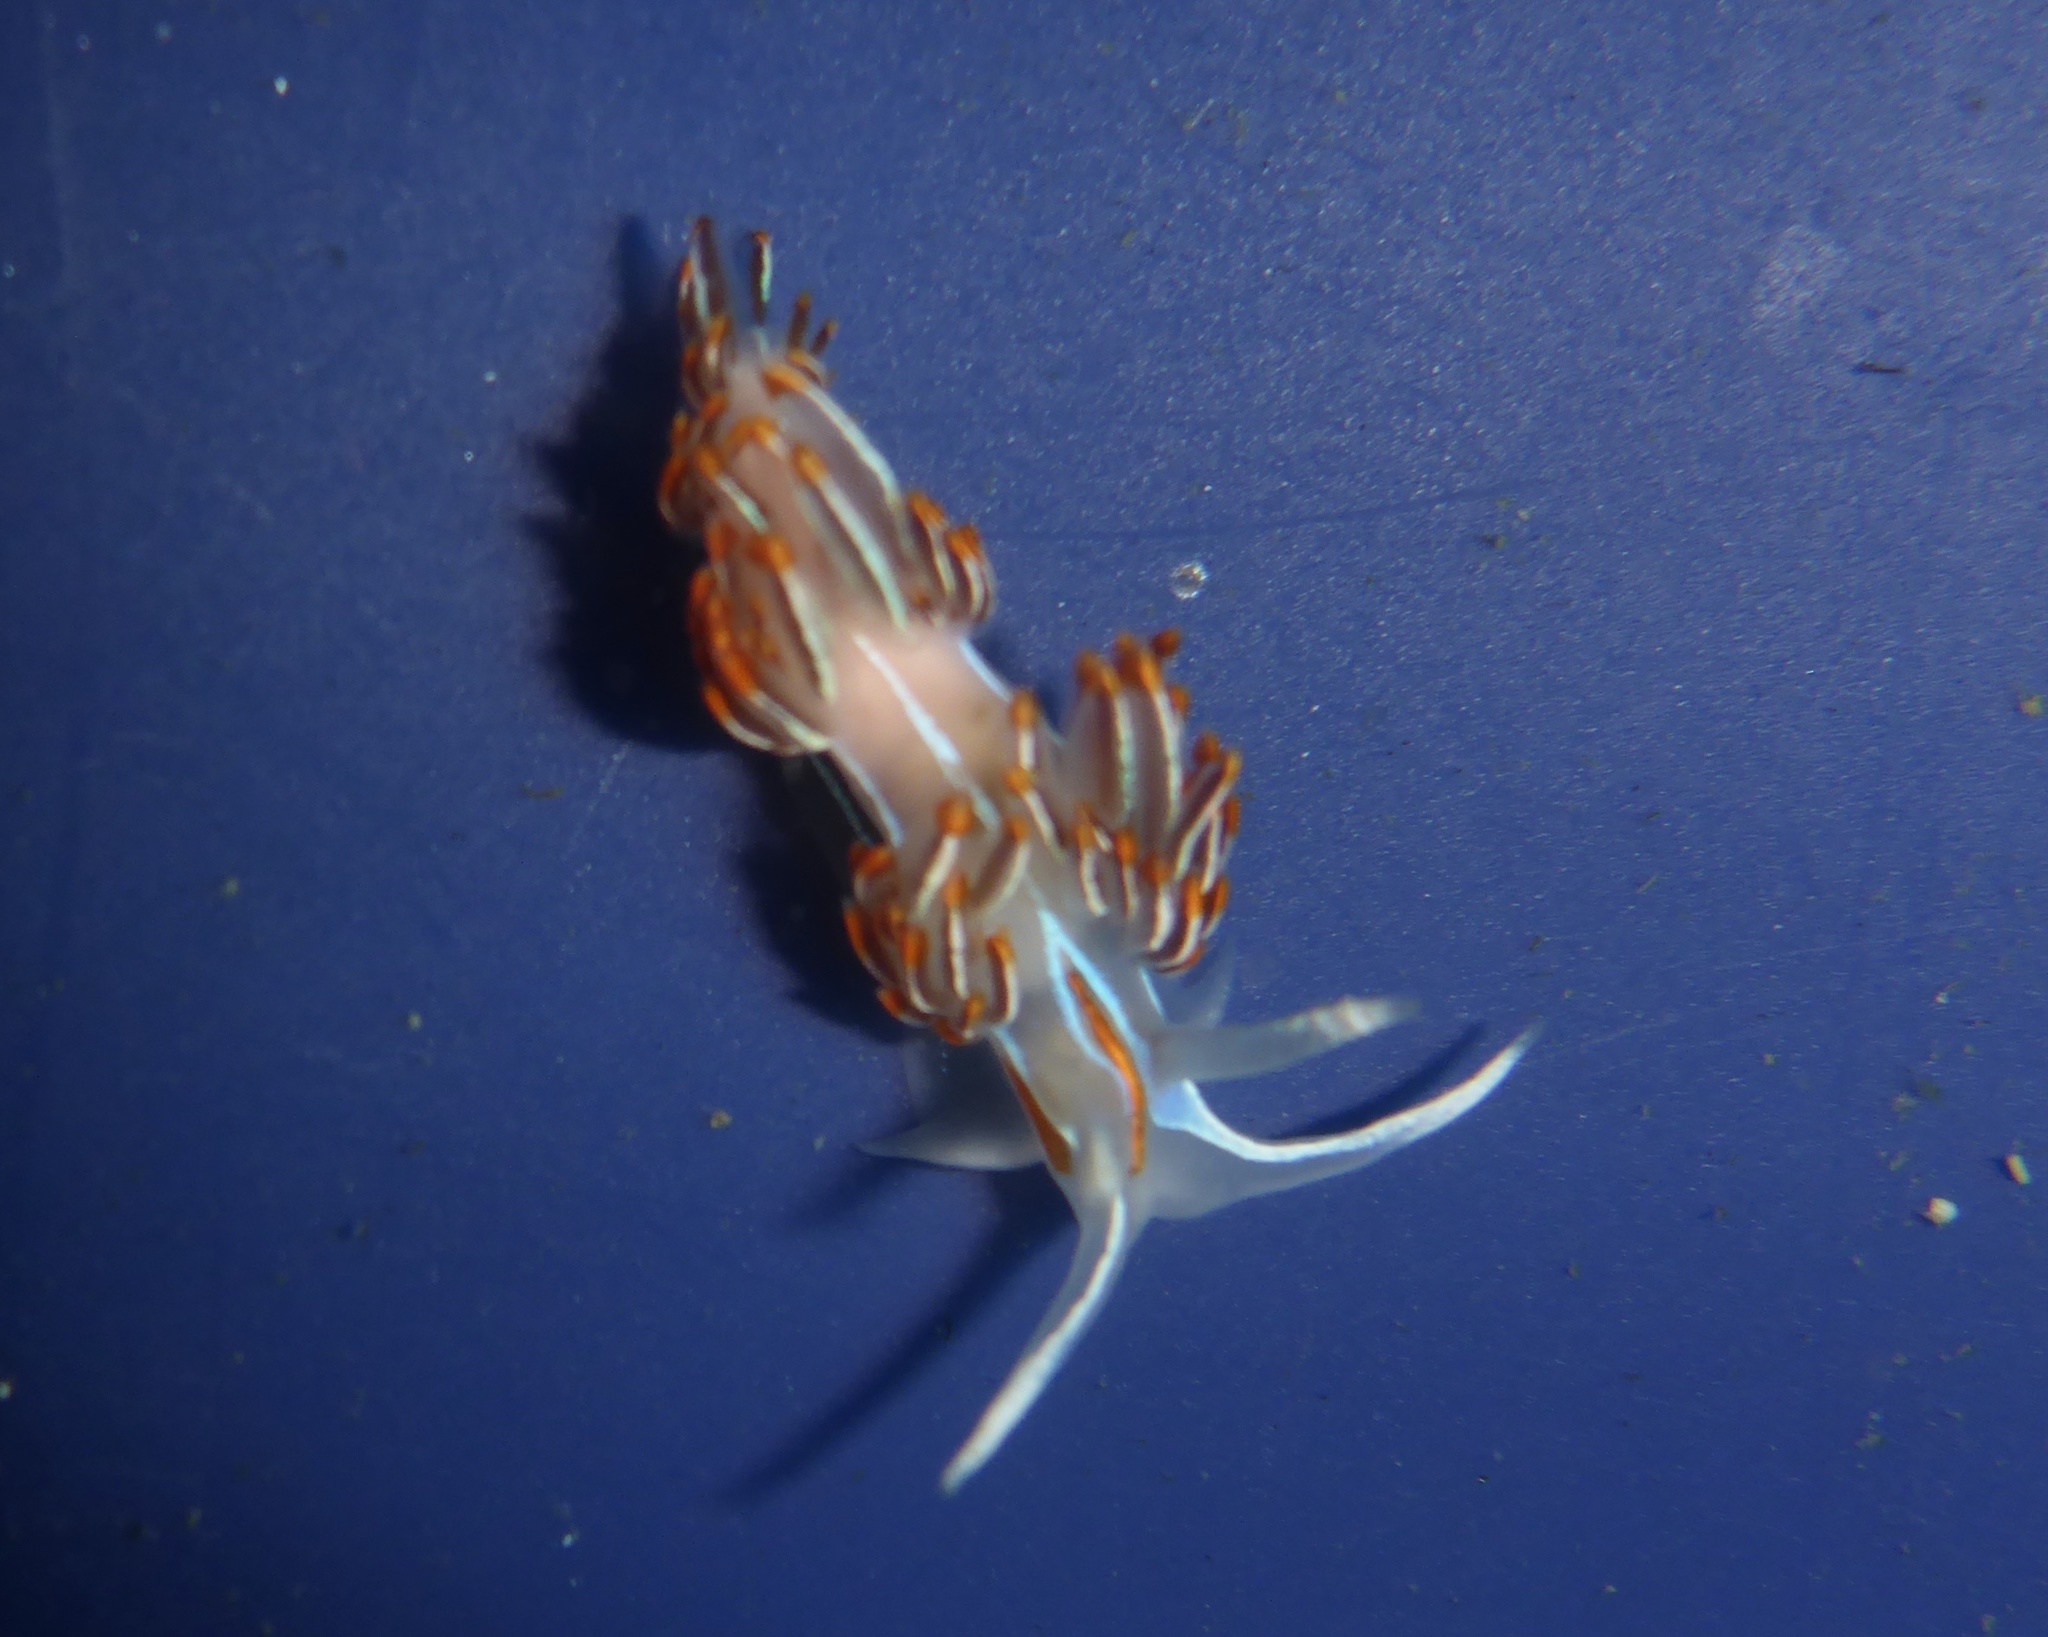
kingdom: Animalia
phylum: Mollusca
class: Gastropoda
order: Nudibranchia
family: Myrrhinidae
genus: Hermissenda
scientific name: Hermissenda crassicornis
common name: Hermissenda
